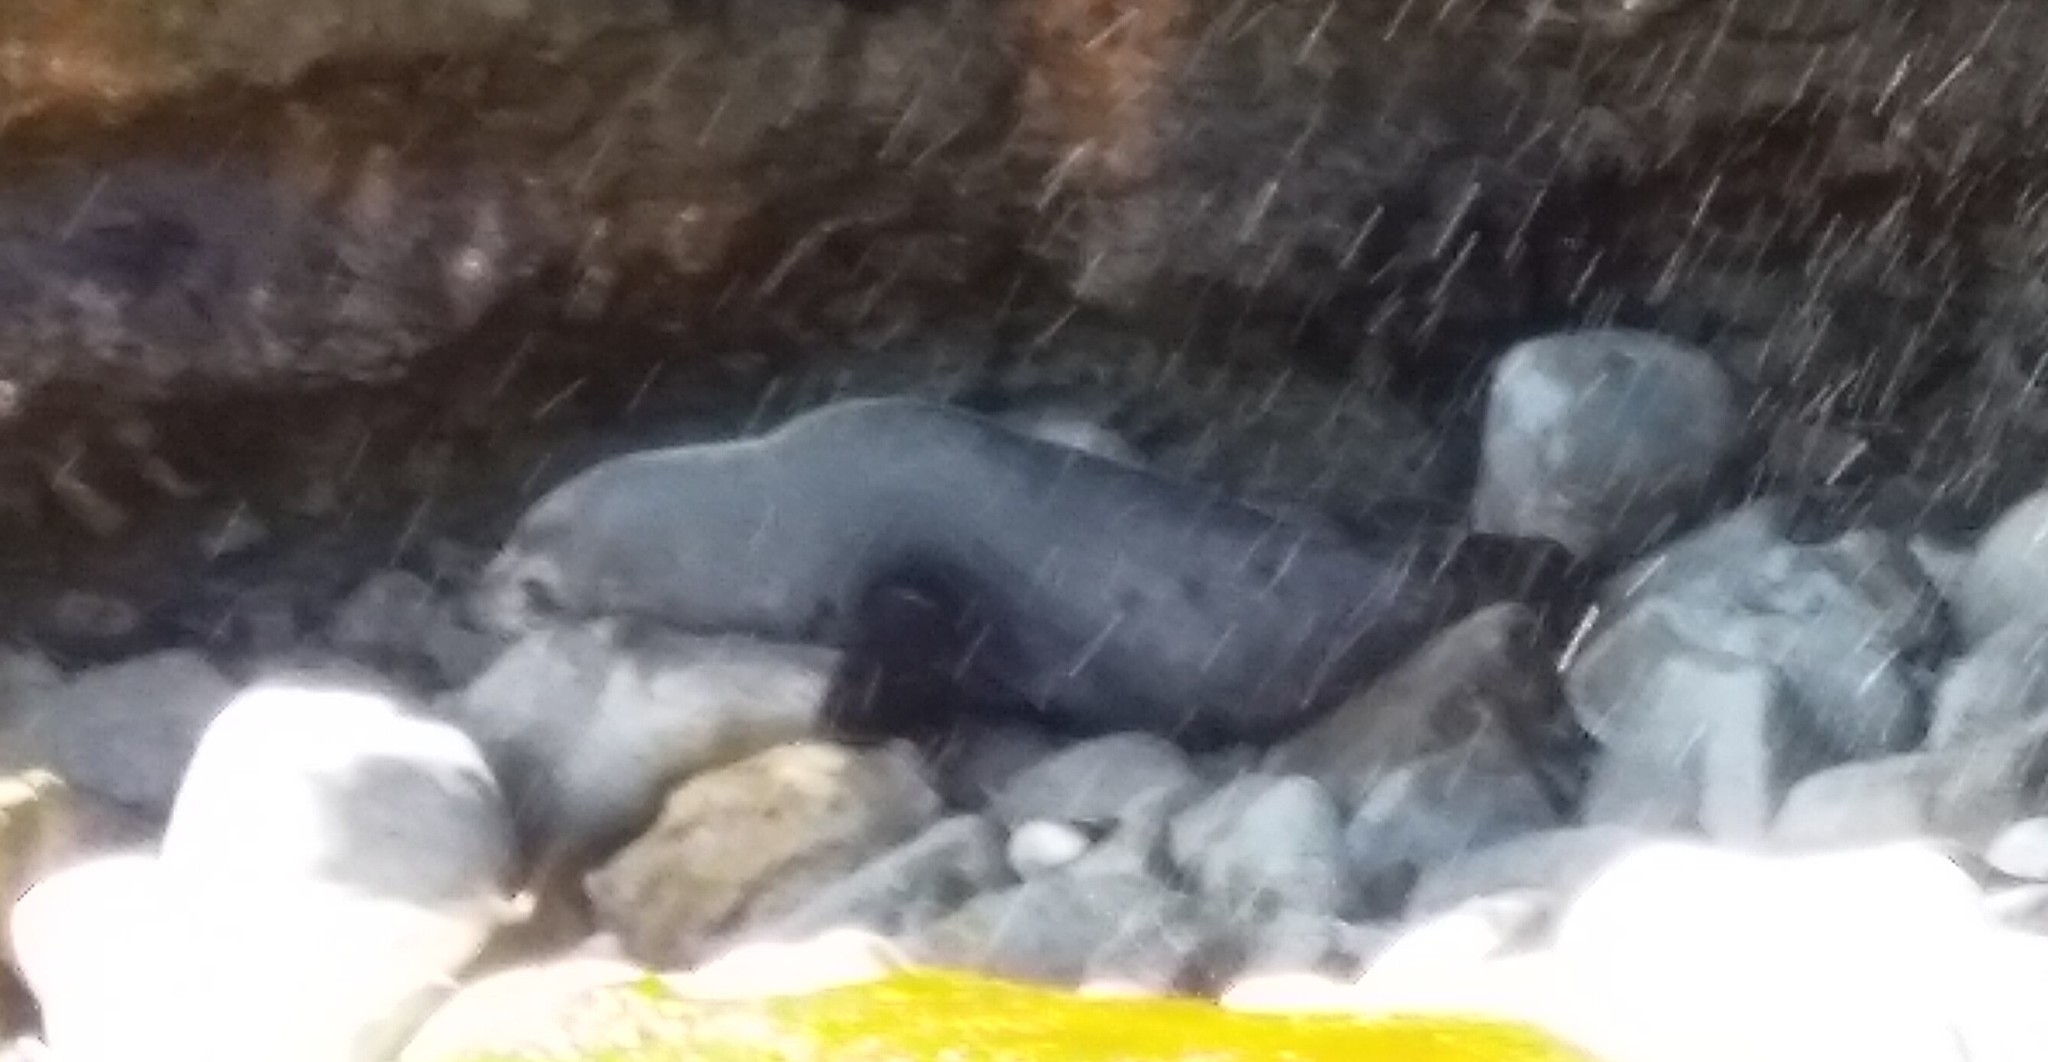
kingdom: Animalia
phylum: Chordata
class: Mammalia
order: Carnivora
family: Otariidae
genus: Arctocephalus
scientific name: Arctocephalus forsteri
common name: New zealand fur seal
